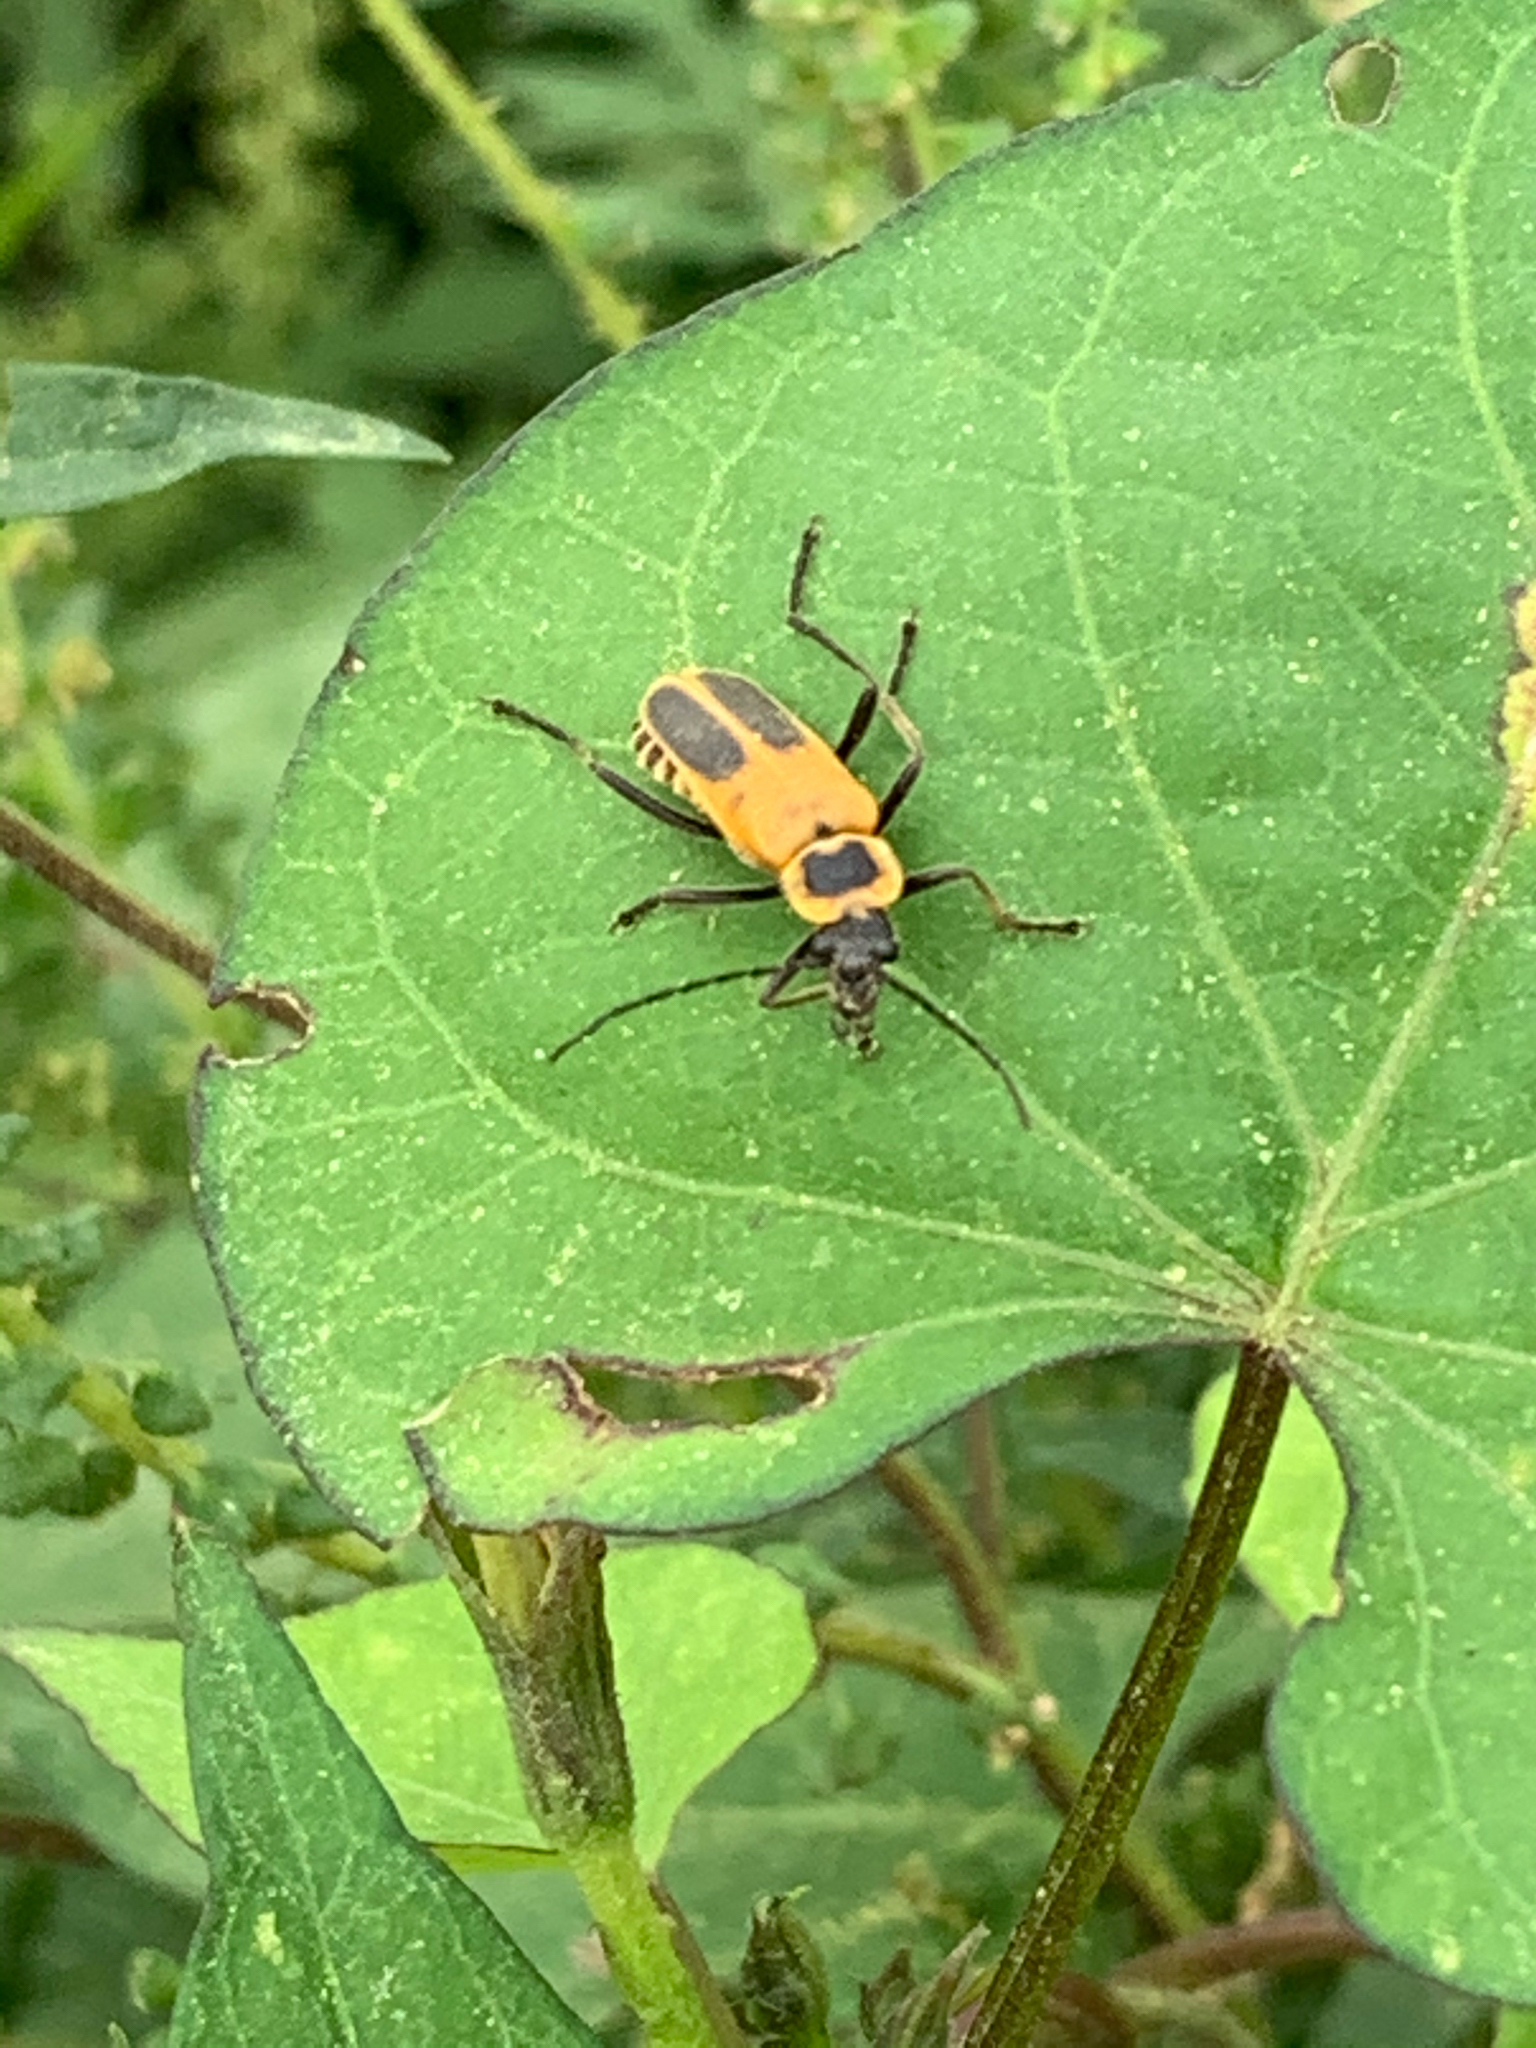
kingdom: Animalia
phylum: Arthropoda
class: Insecta
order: Coleoptera
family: Cantharidae
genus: Chauliognathus
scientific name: Chauliognathus pensylvanicus
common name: Goldenrod soldier beetle
